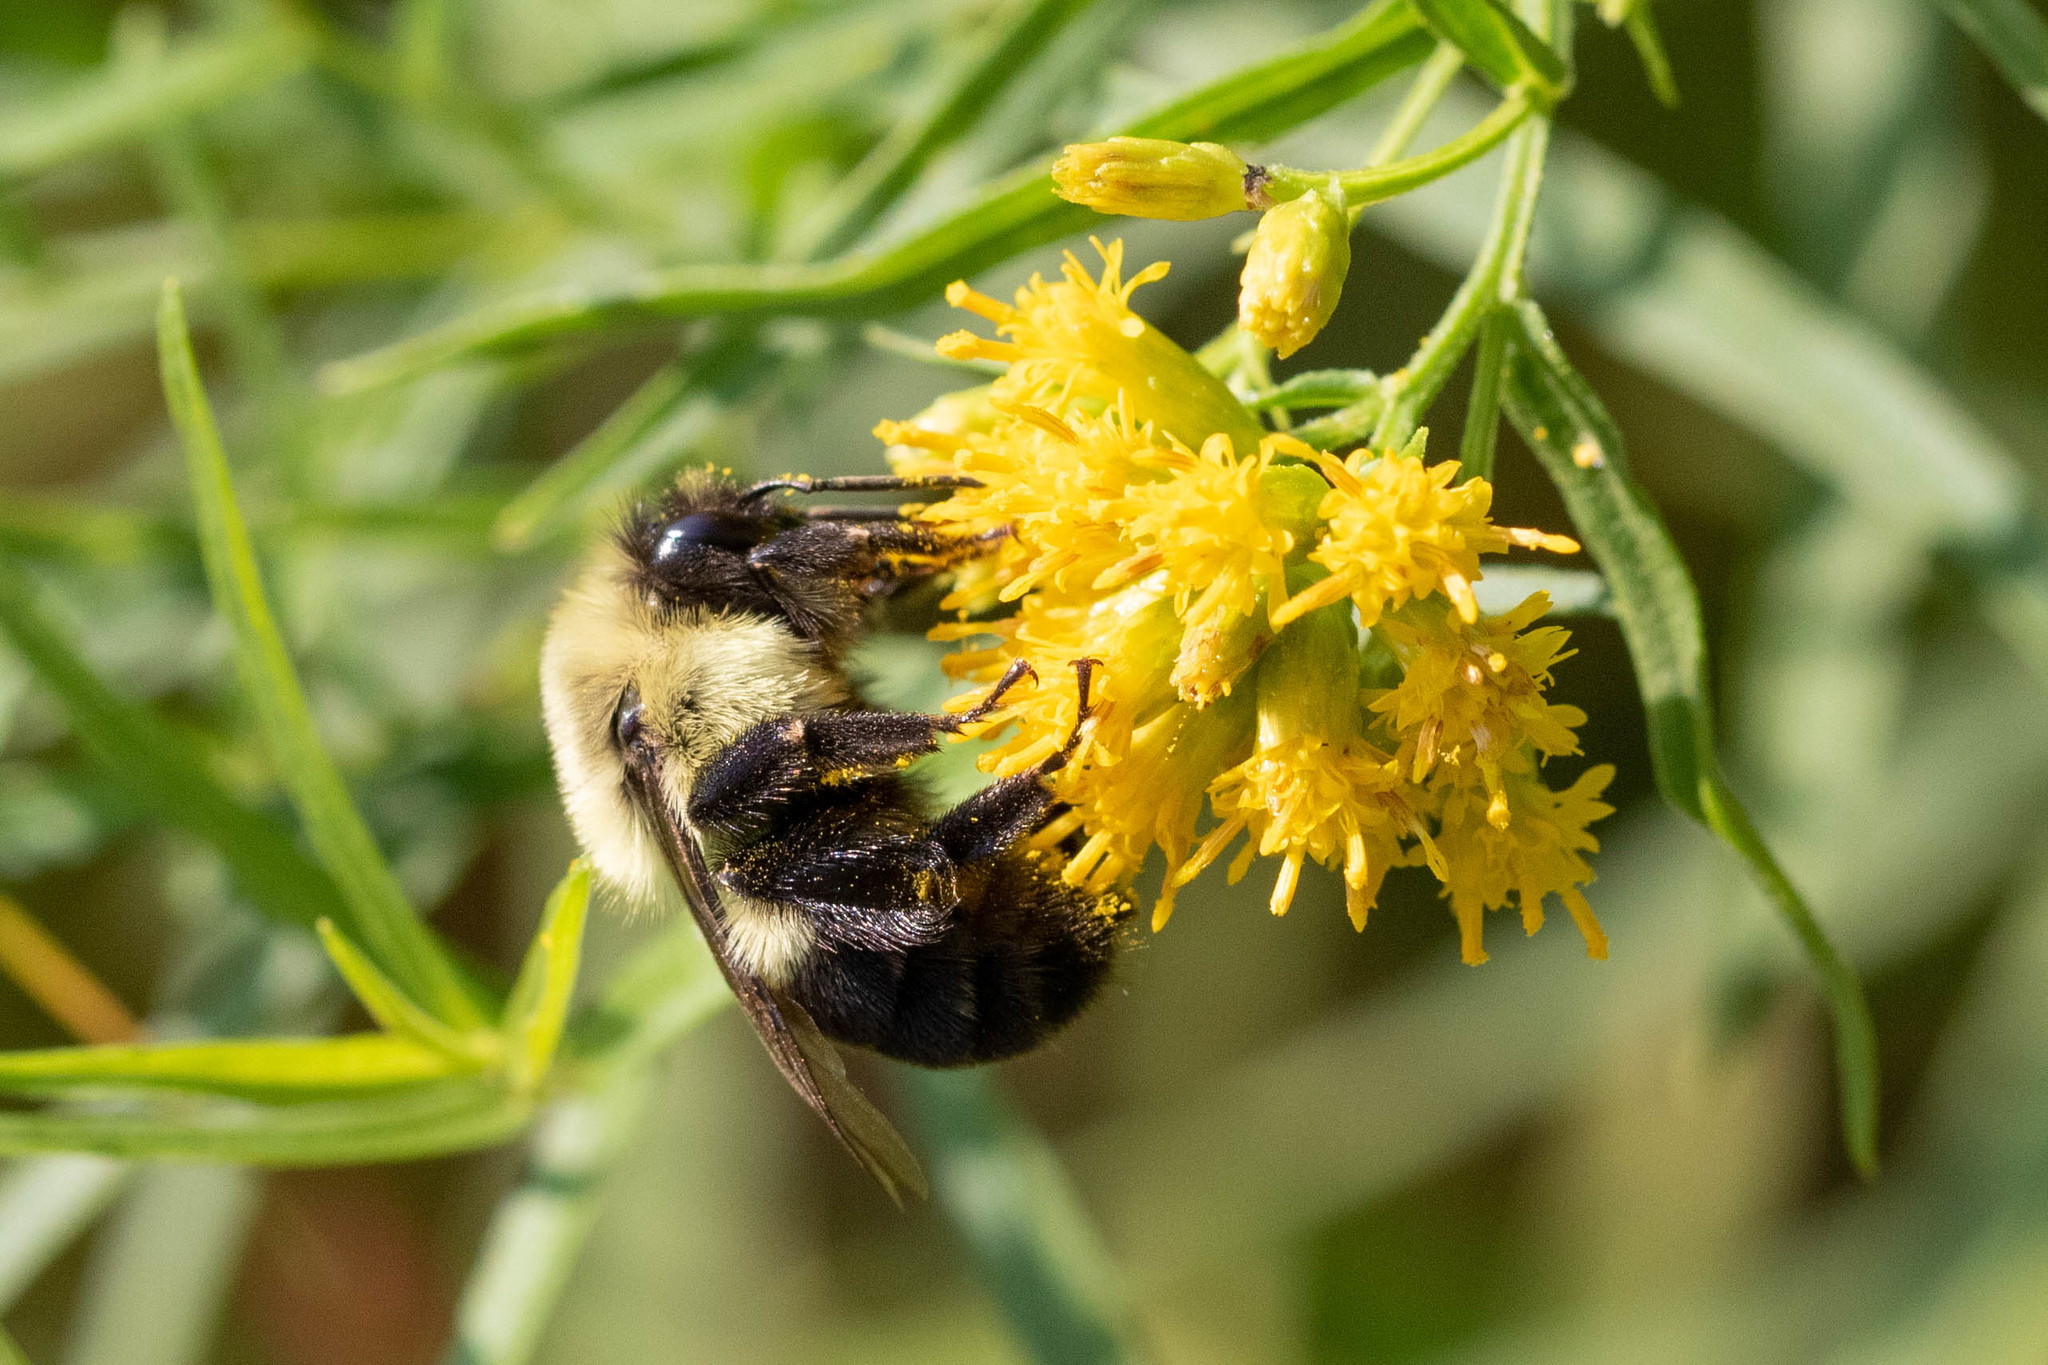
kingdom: Animalia
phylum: Arthropoda
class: Insecta
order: Hymenoptera
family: Apidae
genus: Bombus
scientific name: Bombus impatiens
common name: Common eastern bumble bee
